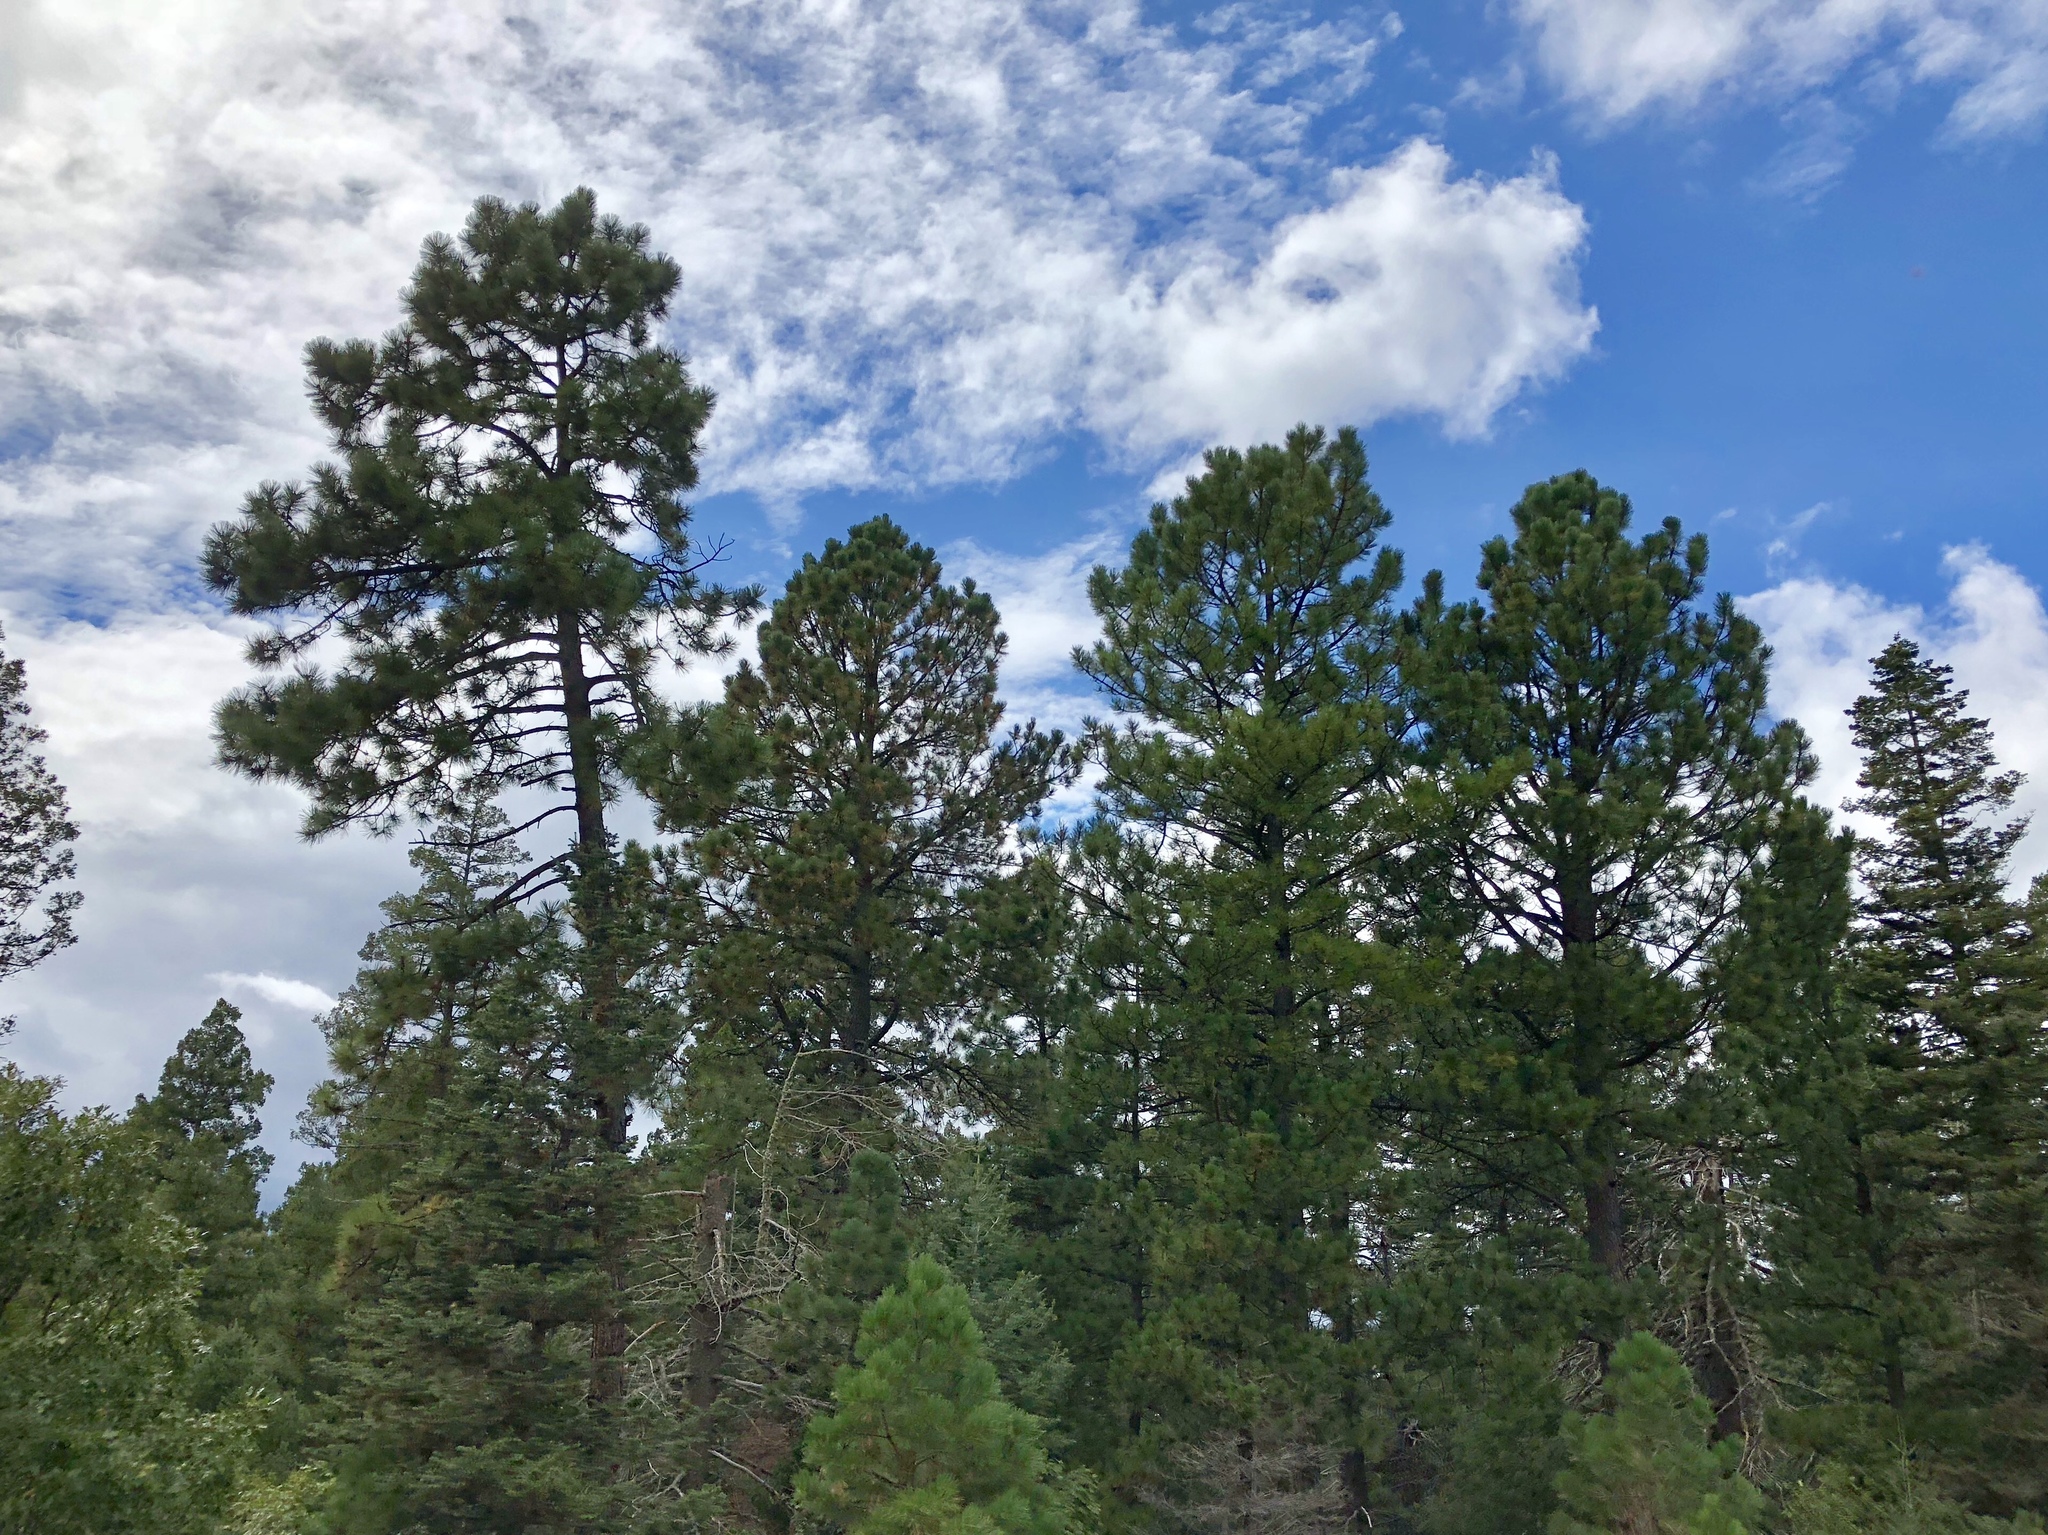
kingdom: Plantae
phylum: Tracheophyta
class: Pinopsida
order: Pinales
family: Pinaceae
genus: Pinus
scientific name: Pinus ponderosa
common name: Western yellow-pine
